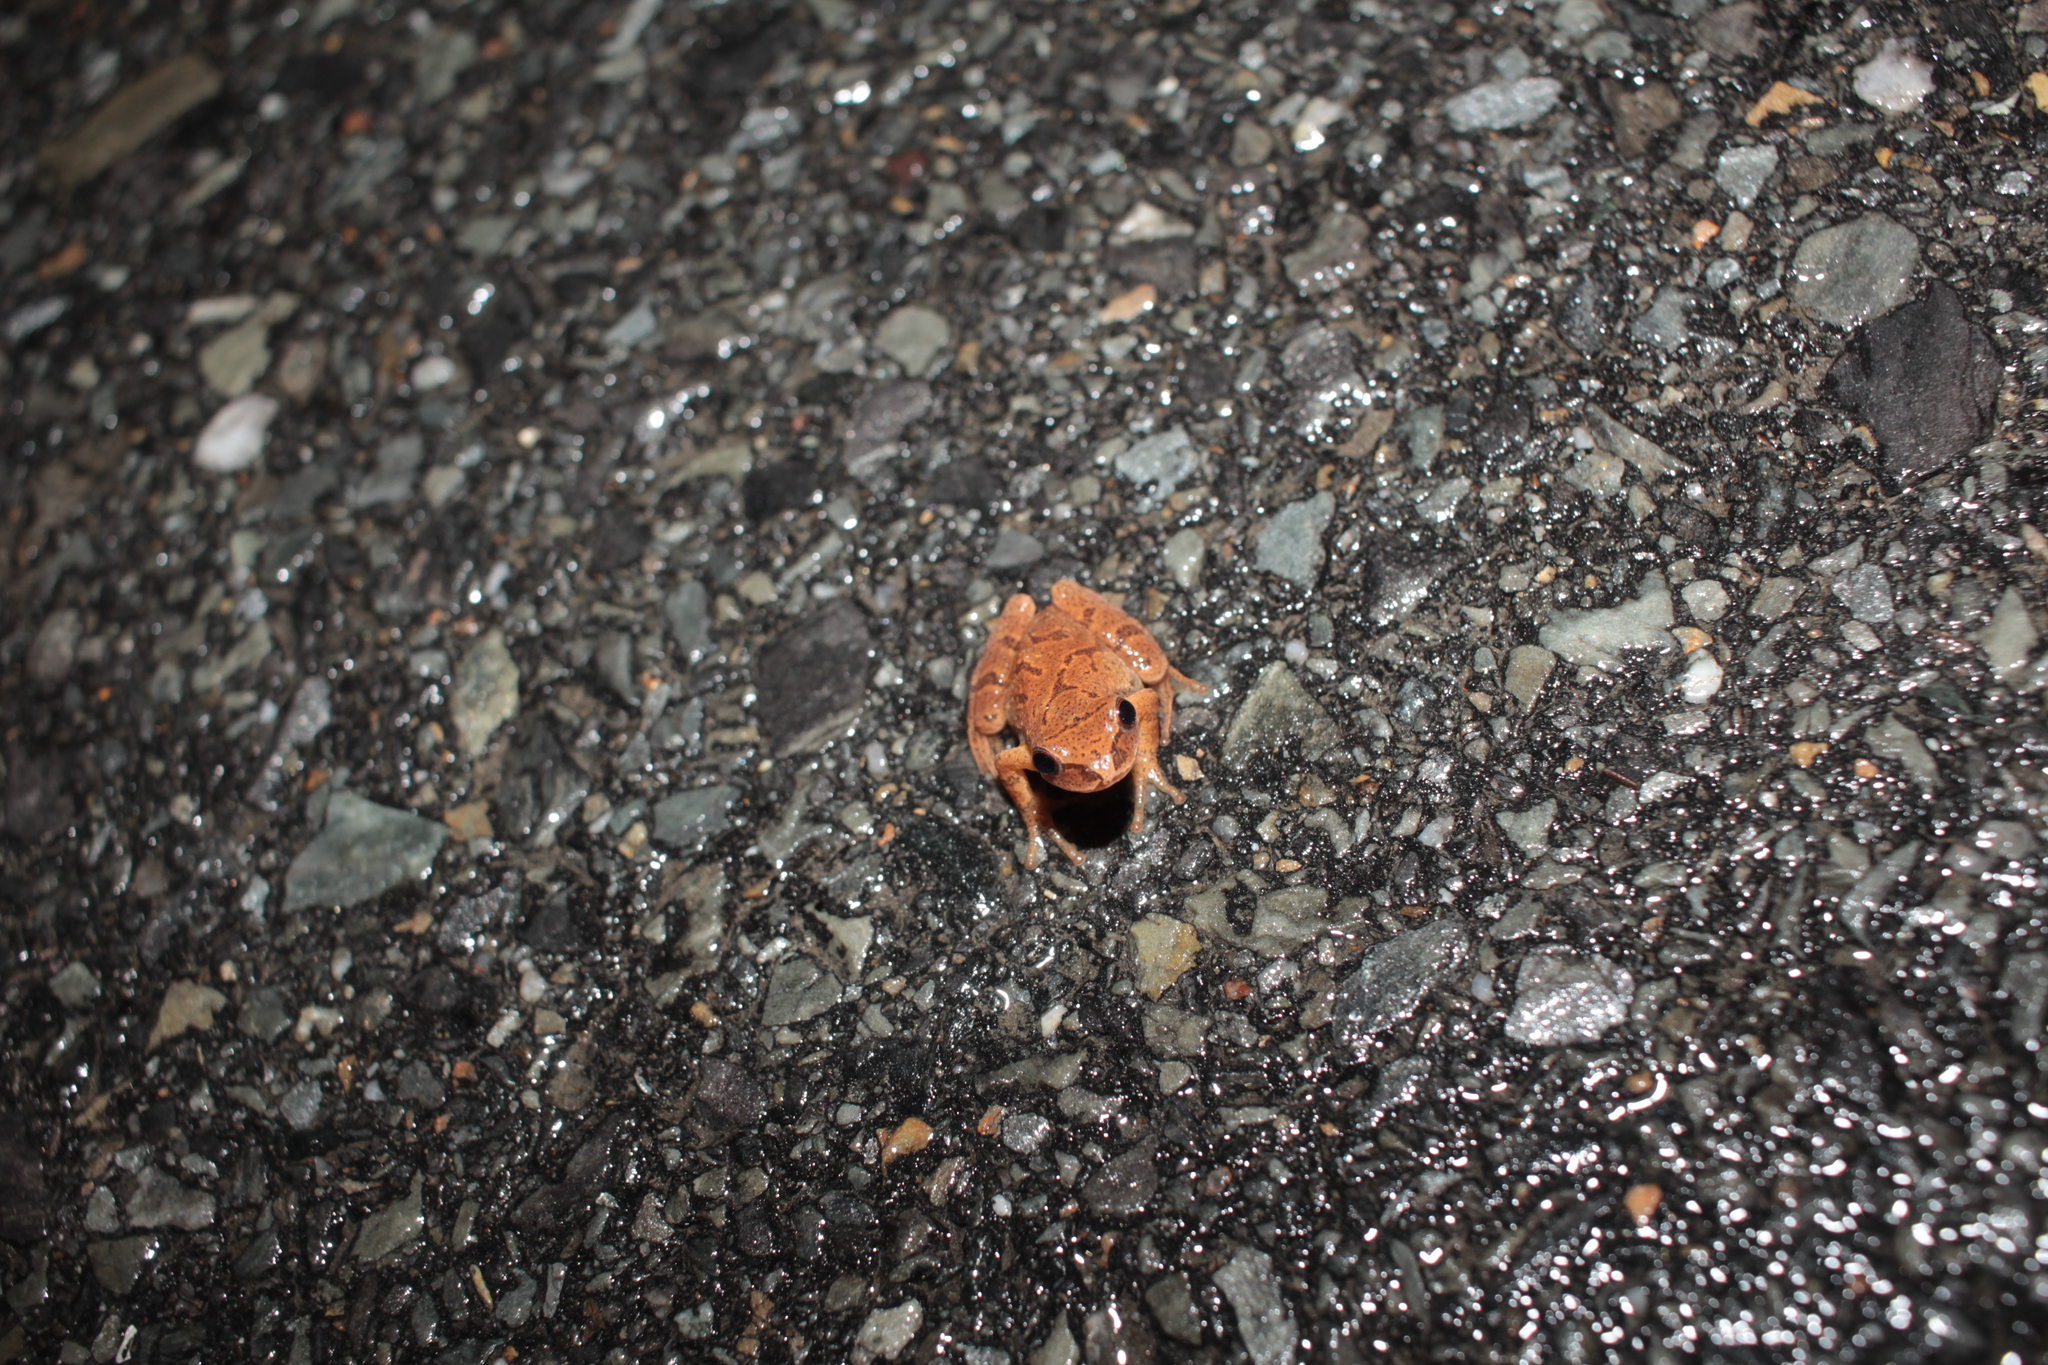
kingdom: Animalia
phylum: Chordata
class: Amphibia
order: Anura
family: Hylidae
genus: Pseudacris
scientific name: Pseudacris crucifer
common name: Spring peeper
